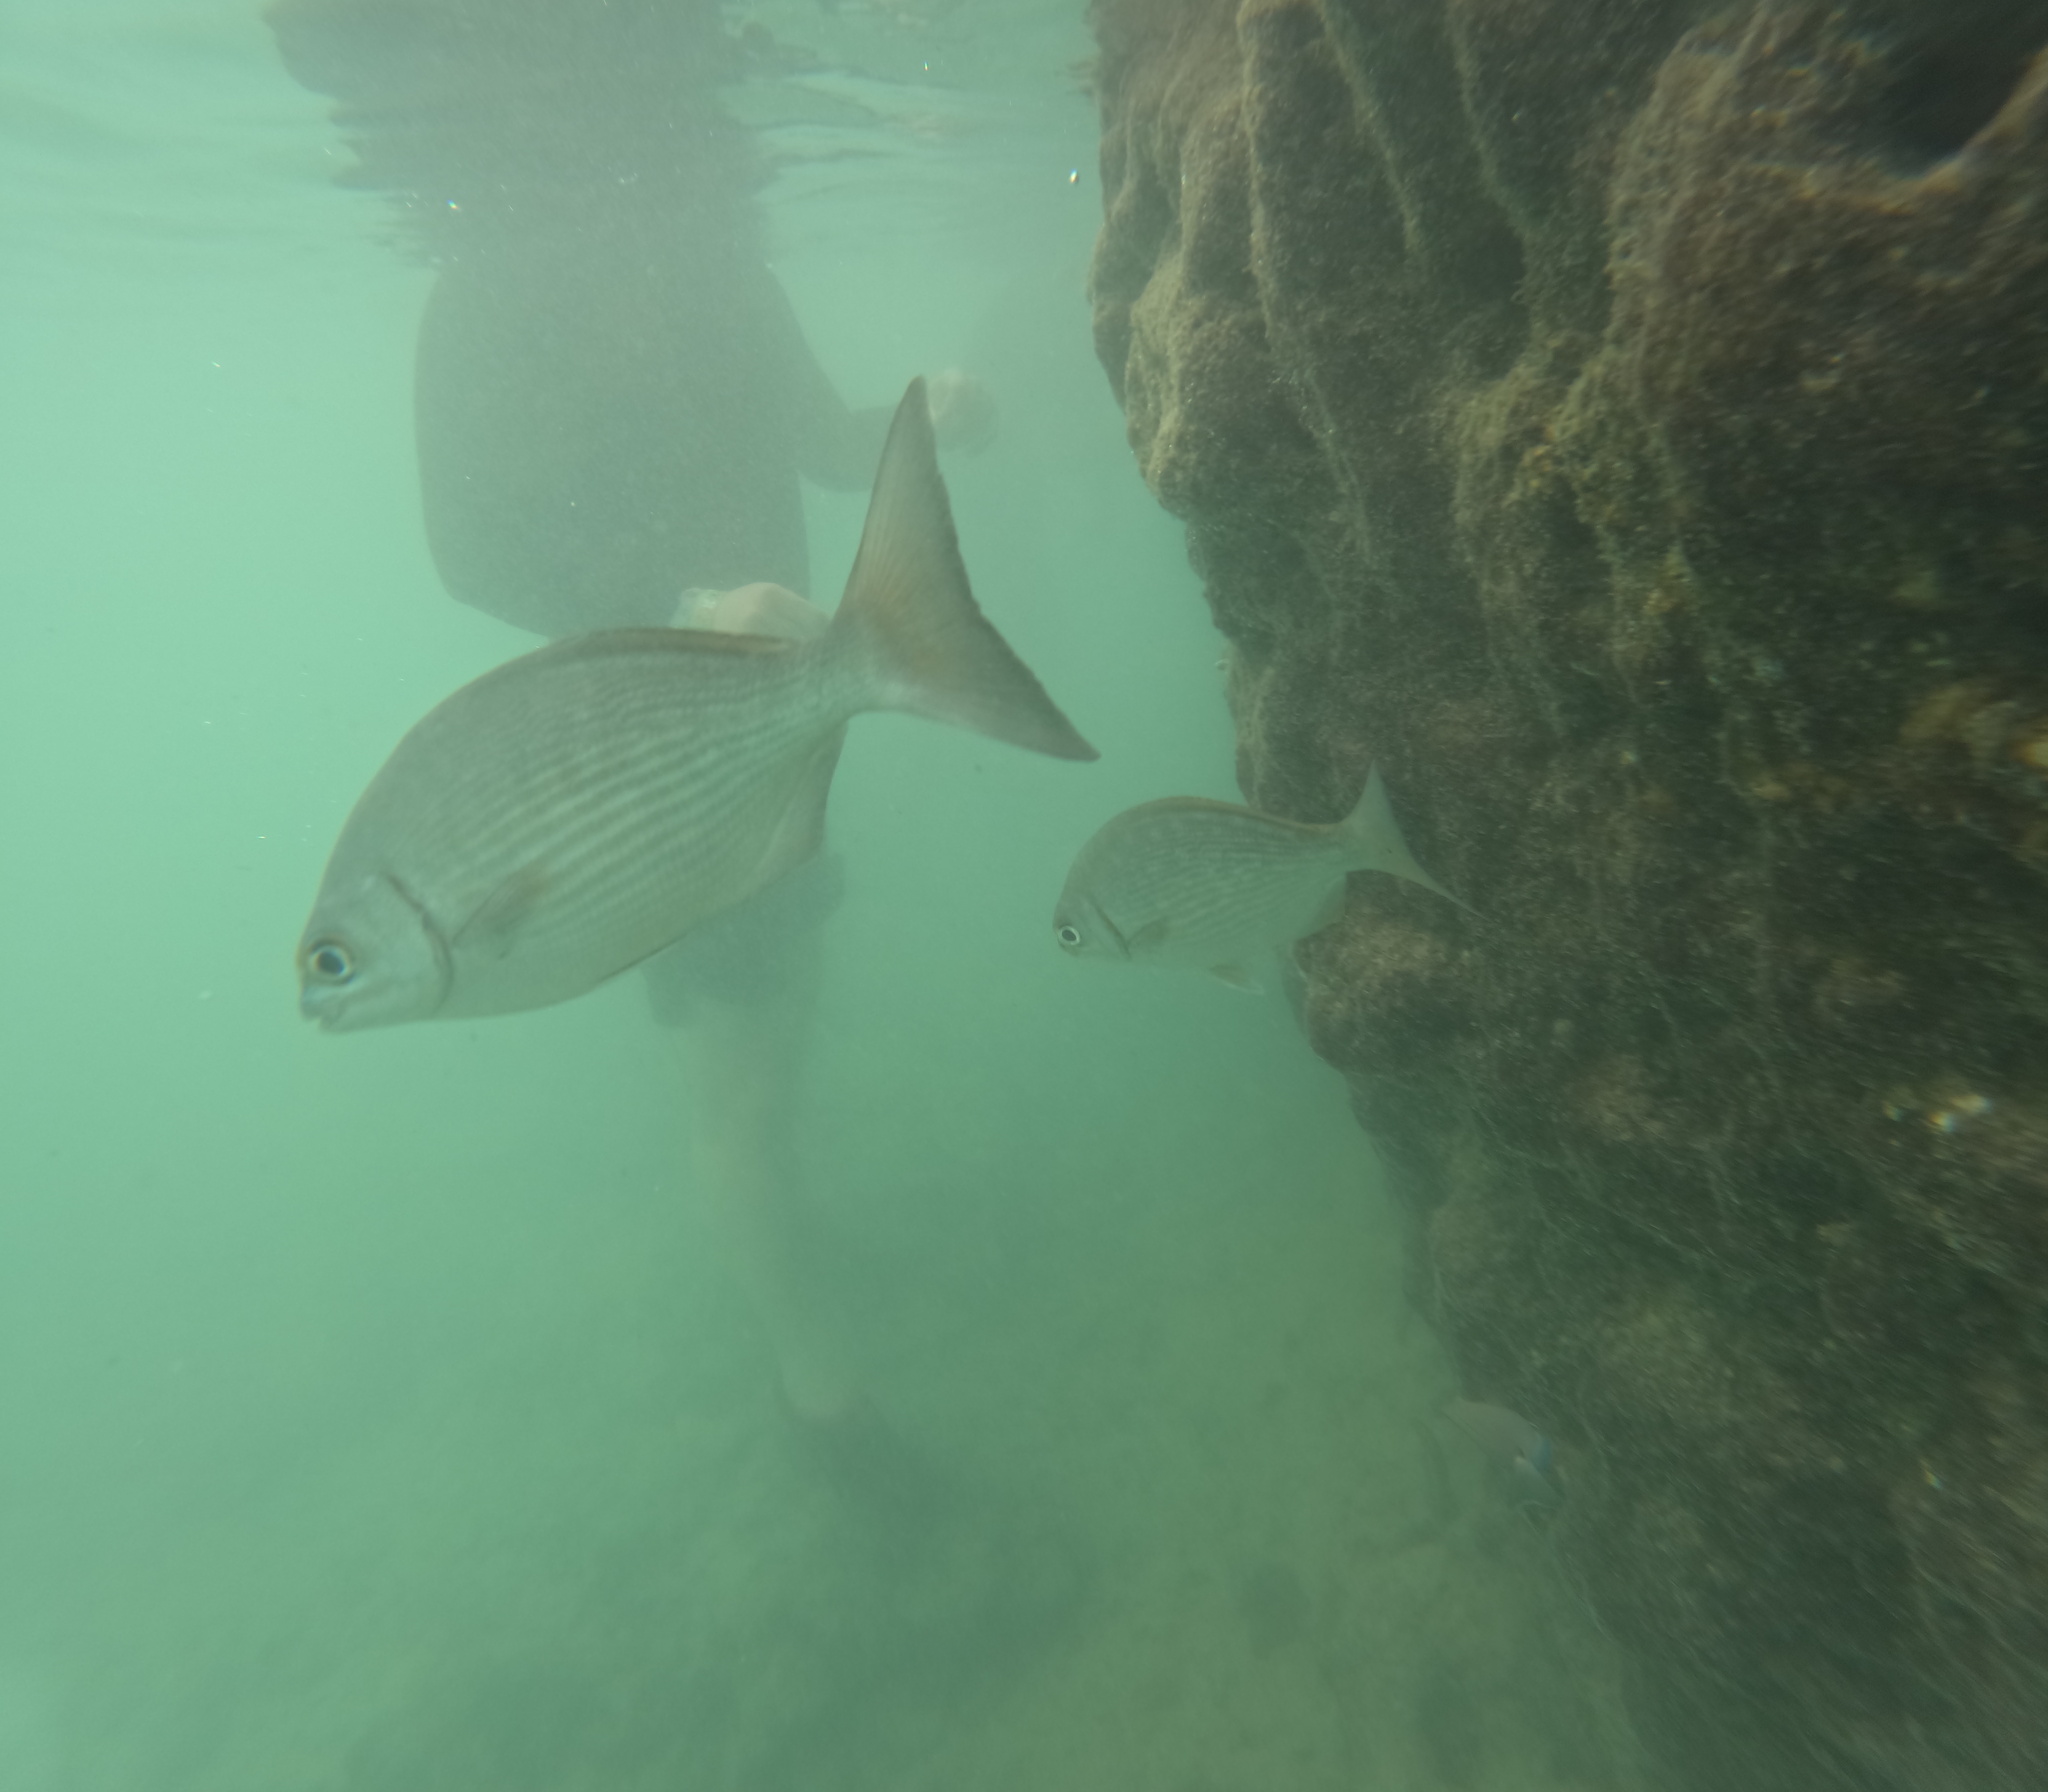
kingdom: Animalia
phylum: Chordata
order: Perciformes
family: Kyphosidae
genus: Kyphosus
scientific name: Kyphosus vaigiensis
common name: Brassy chub
